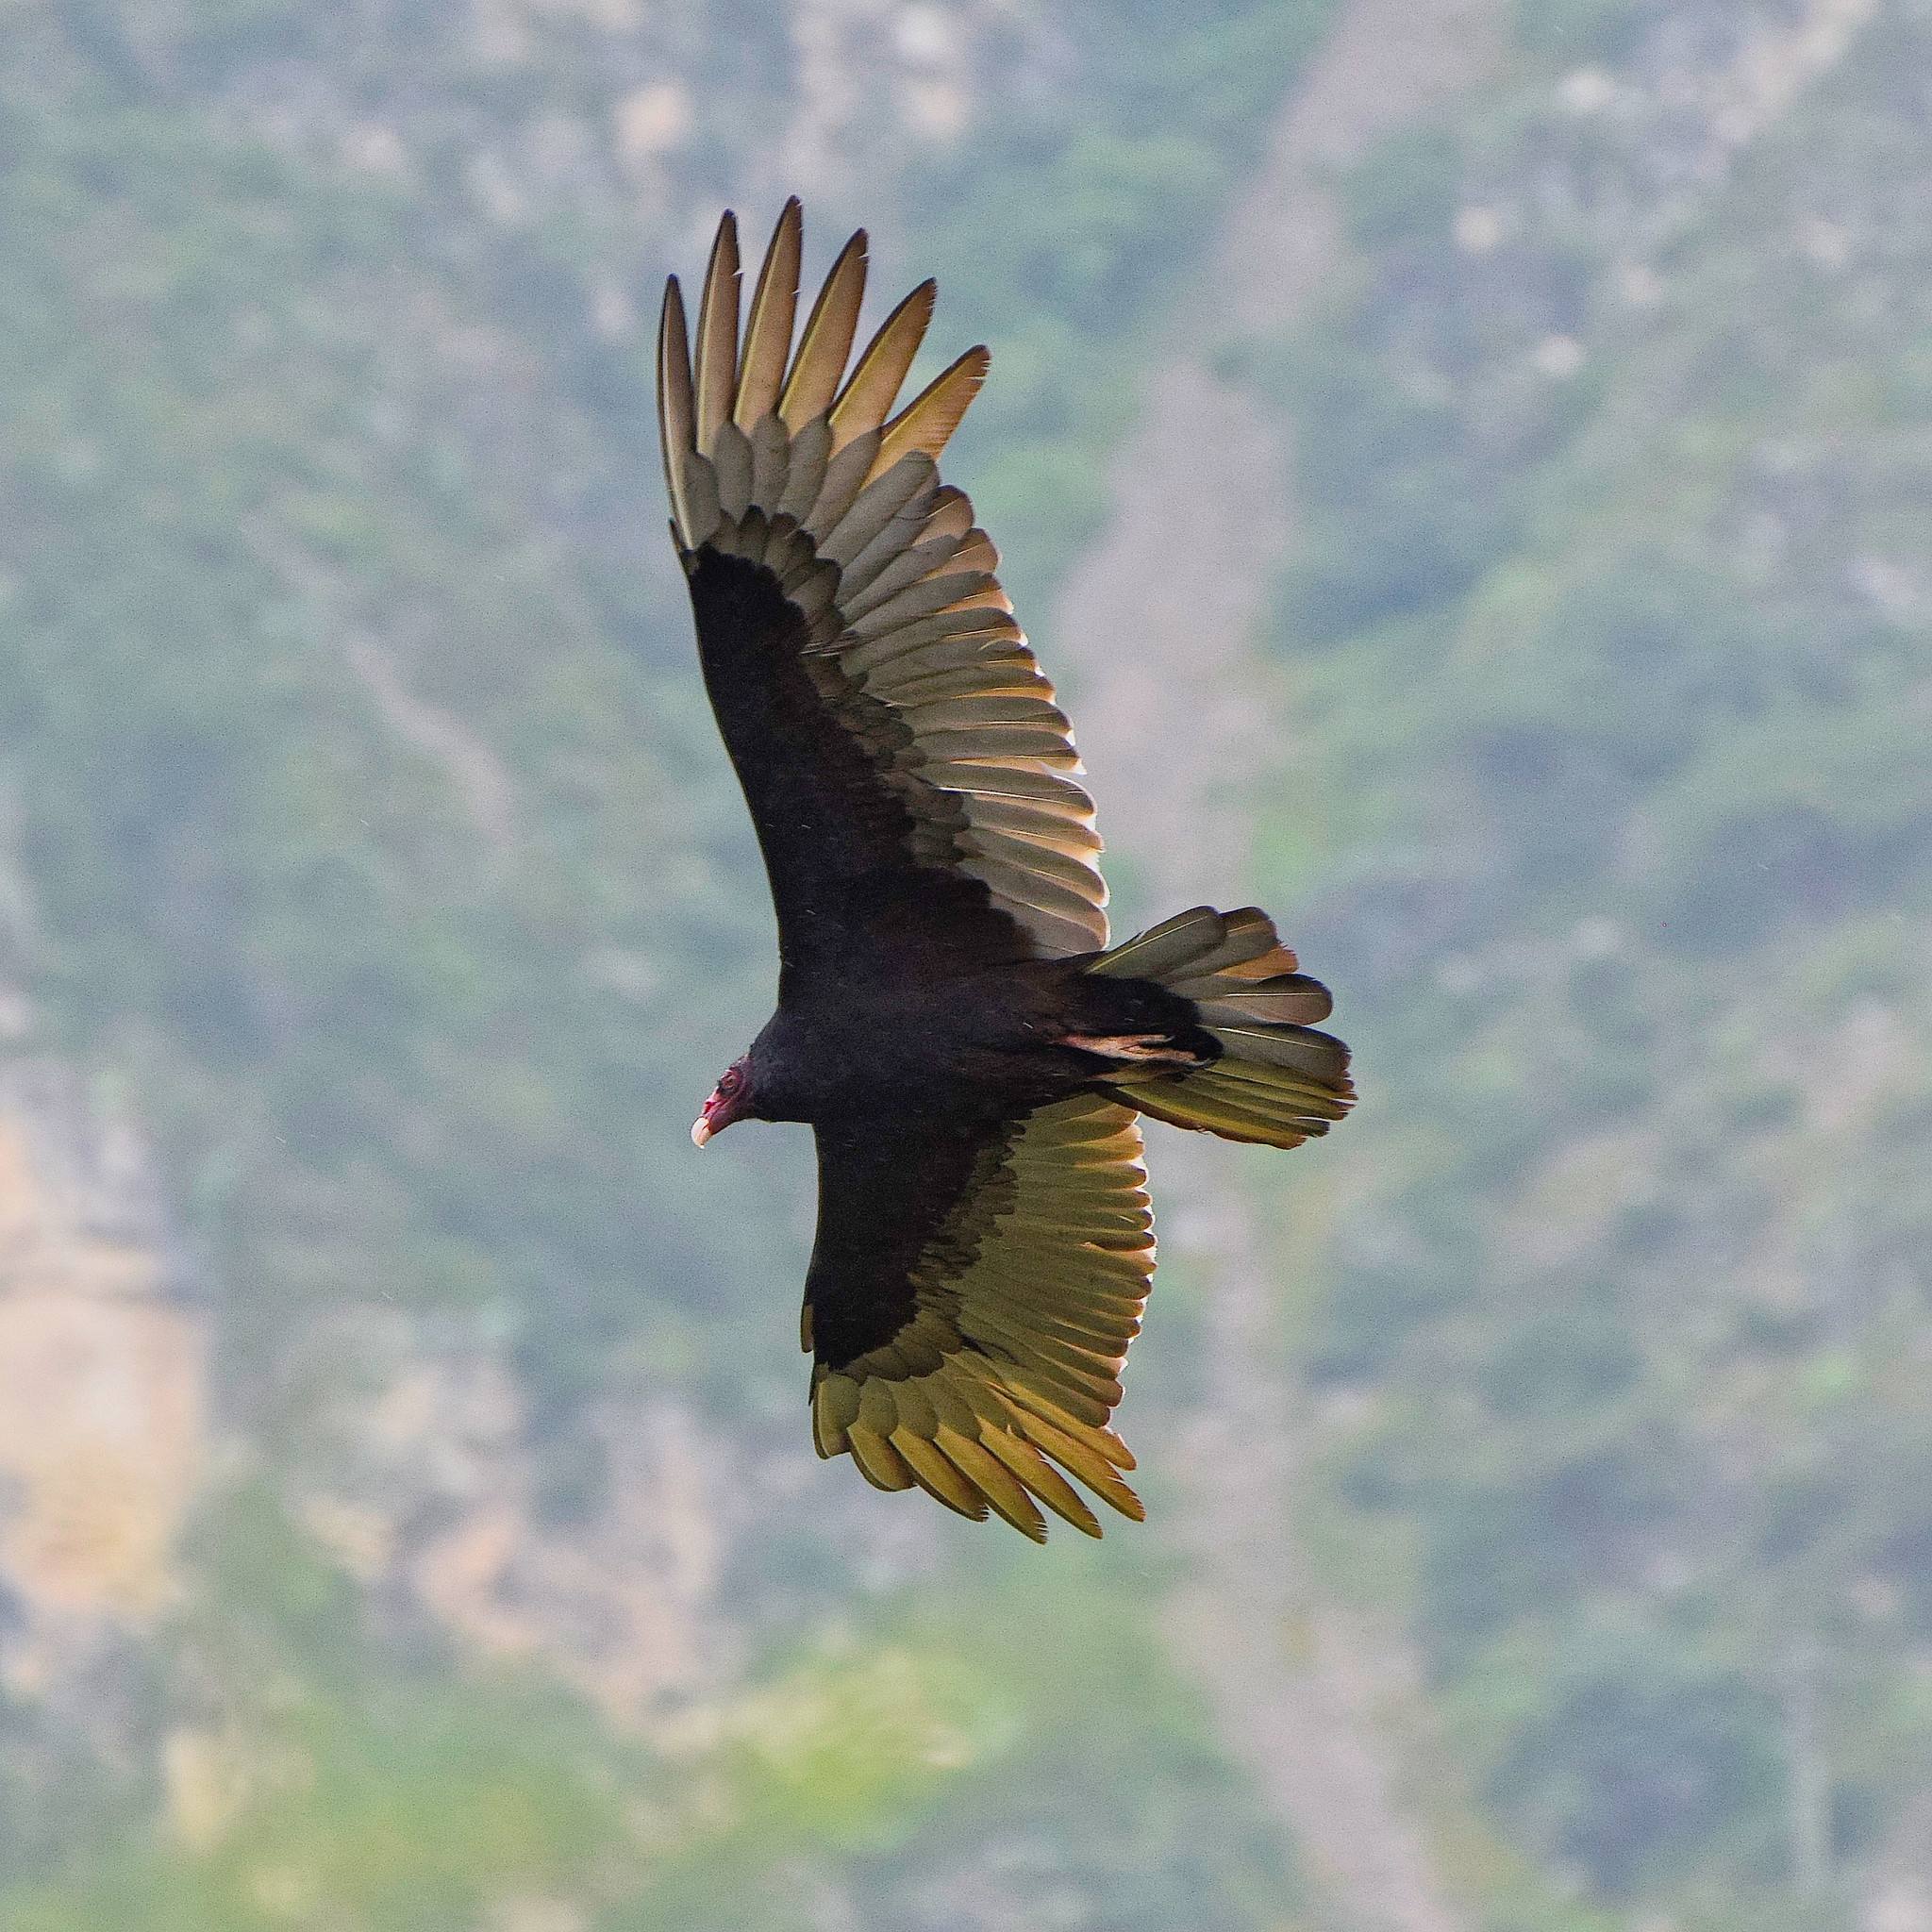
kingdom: Animalia
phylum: Chordata
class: Aves
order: Accipitriformes
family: Cathartidae
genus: Cathartes
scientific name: Cathartes aura
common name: Turkey vulture
